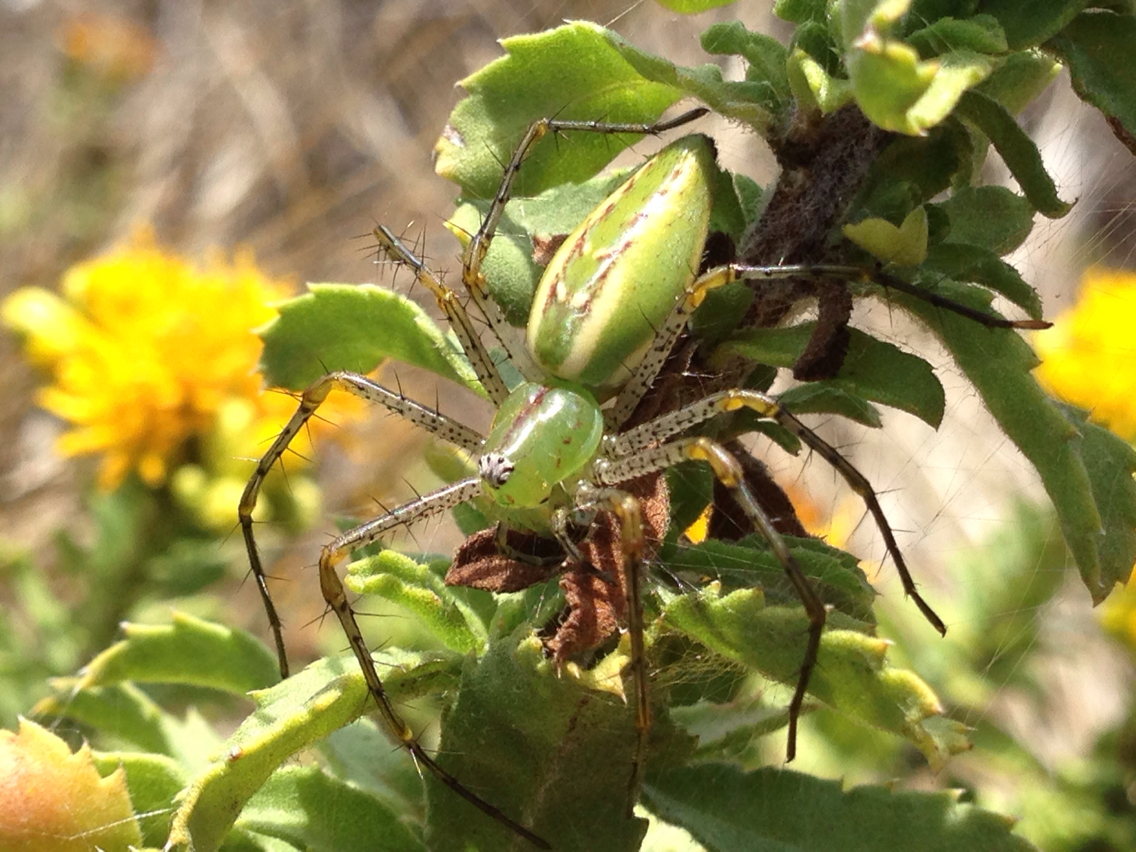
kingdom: Animalia
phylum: Arthropoda
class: Arachnida
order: Araneae
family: Oxyopidae
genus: Peucetia
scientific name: Peucetia viridans
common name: Lynx spiders
